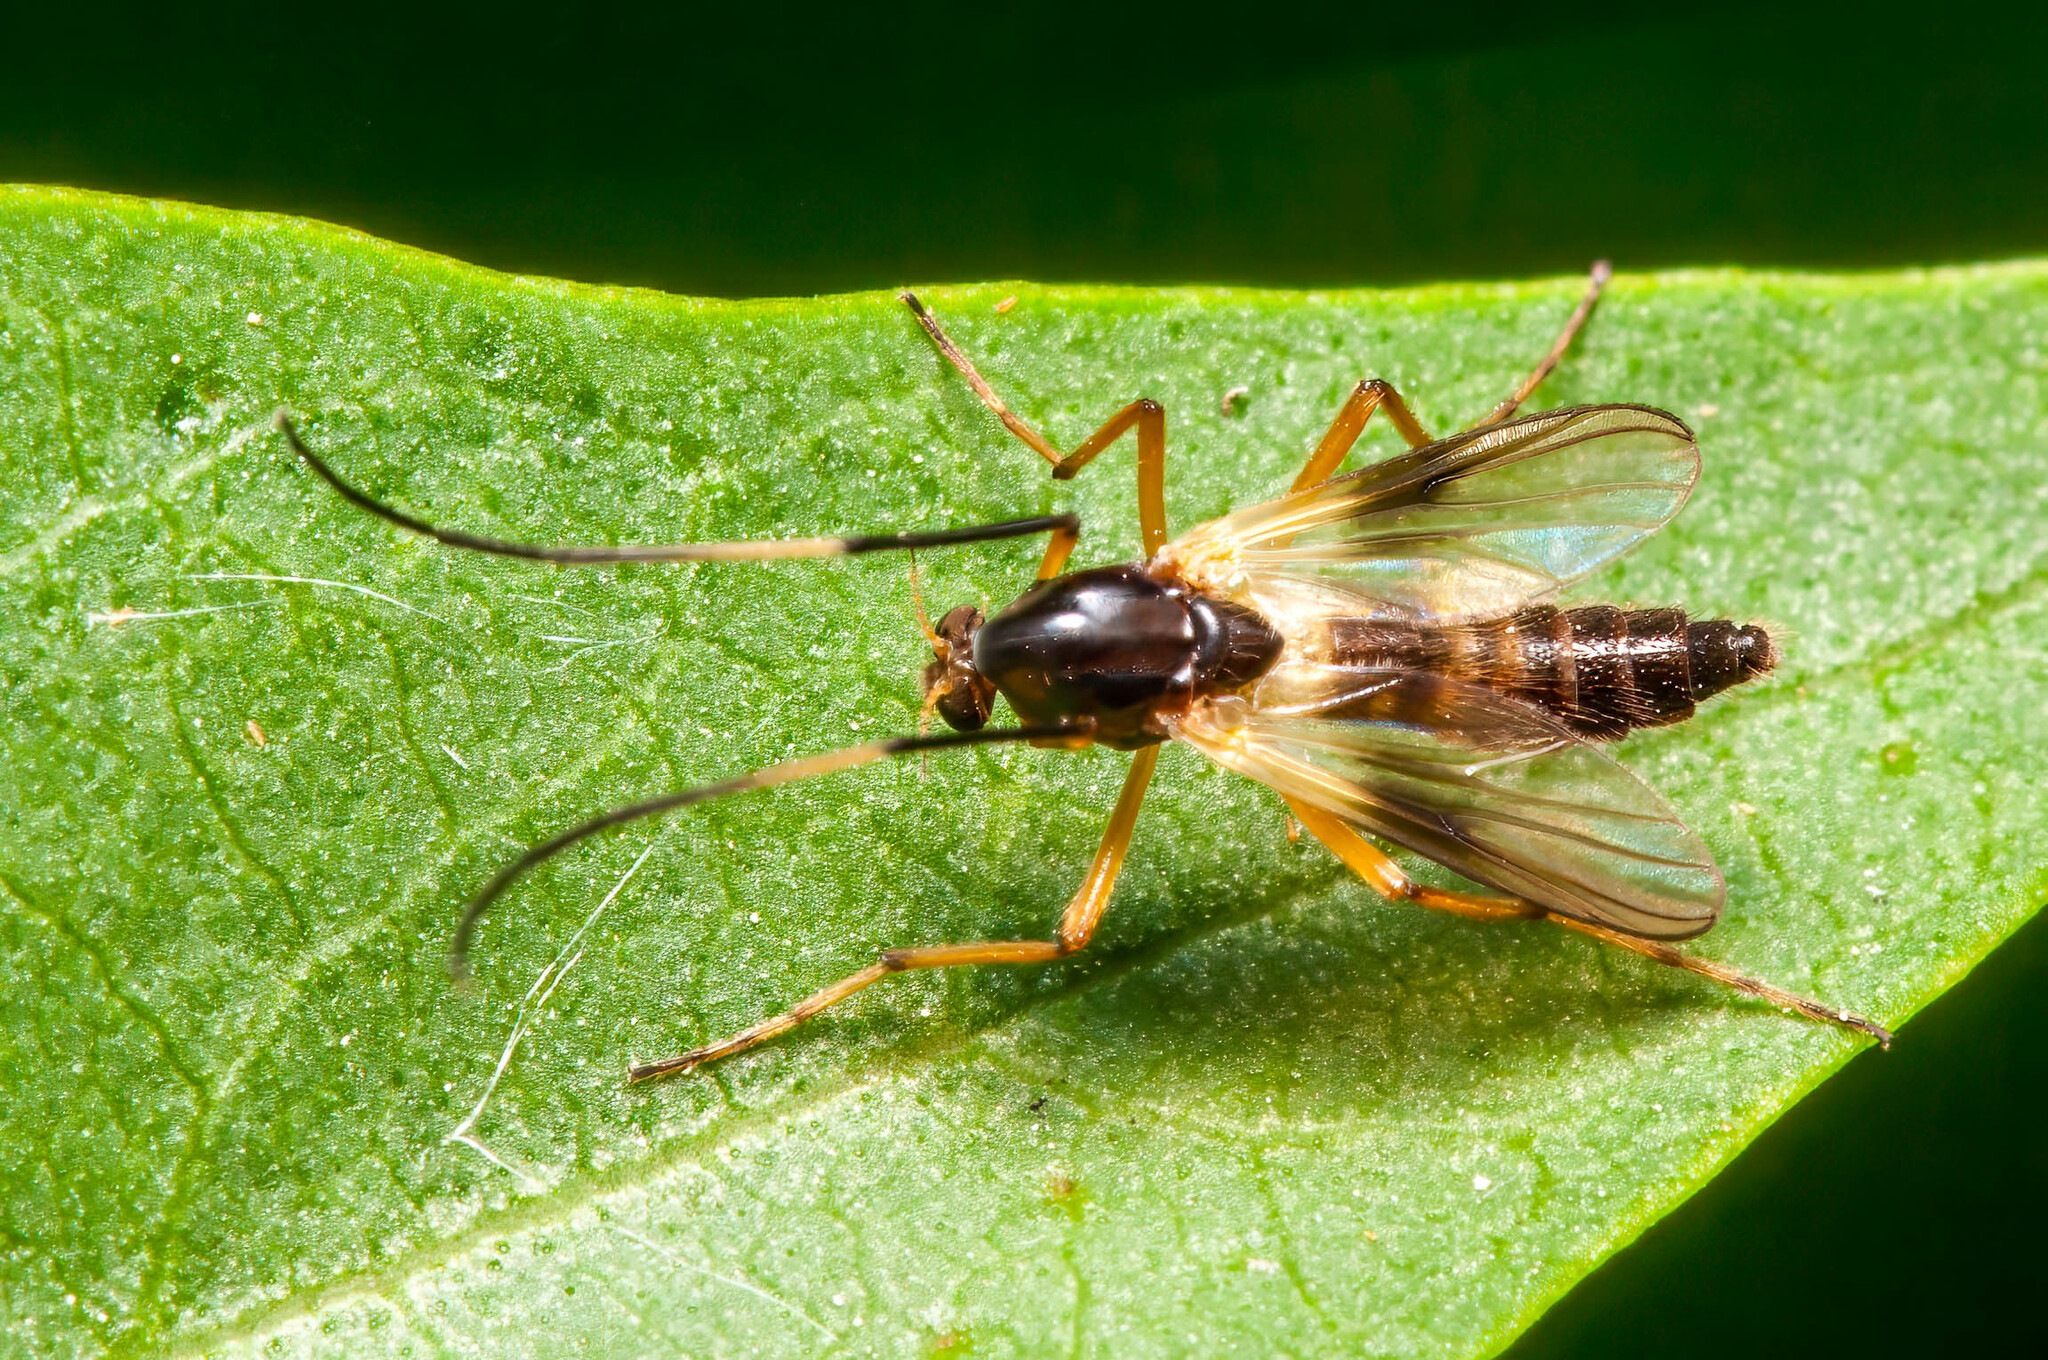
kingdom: Animalia
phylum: Arthropoda
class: Insecta
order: Diptera
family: Chironomidae
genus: Demeijerea
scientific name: Demeijerea brachialis
